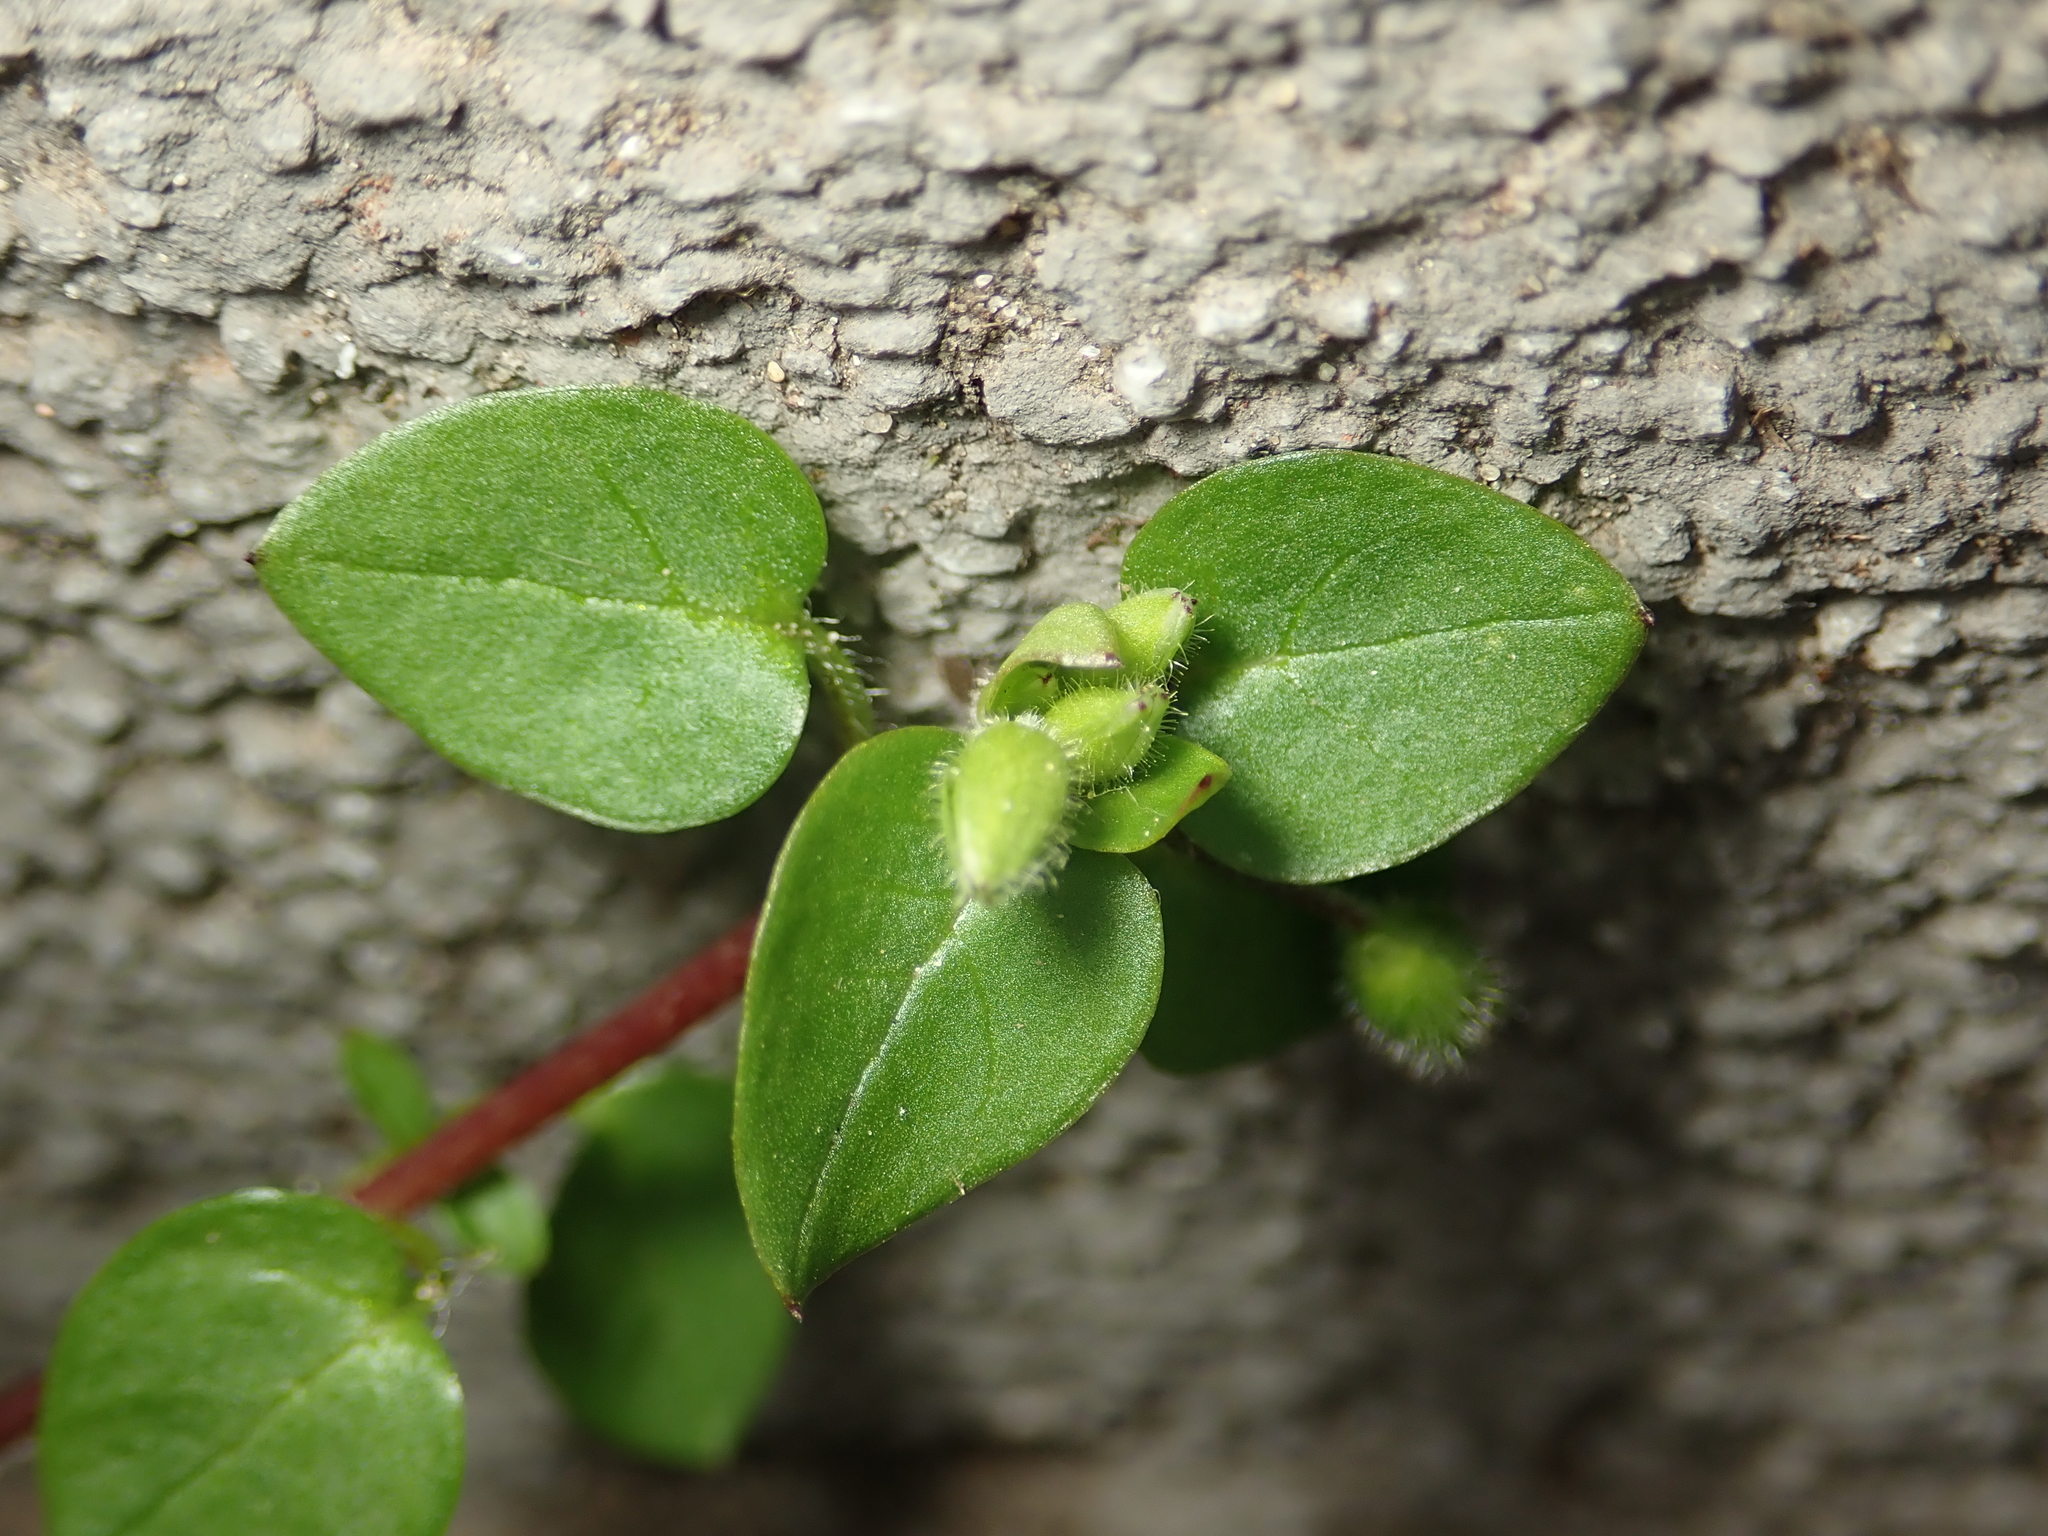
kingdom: Plantae
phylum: Tracheophyta
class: Magnoliopsida
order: Caryophyllales
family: Caryophyllaceae
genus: Stellaria
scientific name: Stellaria media
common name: Common chickweed
